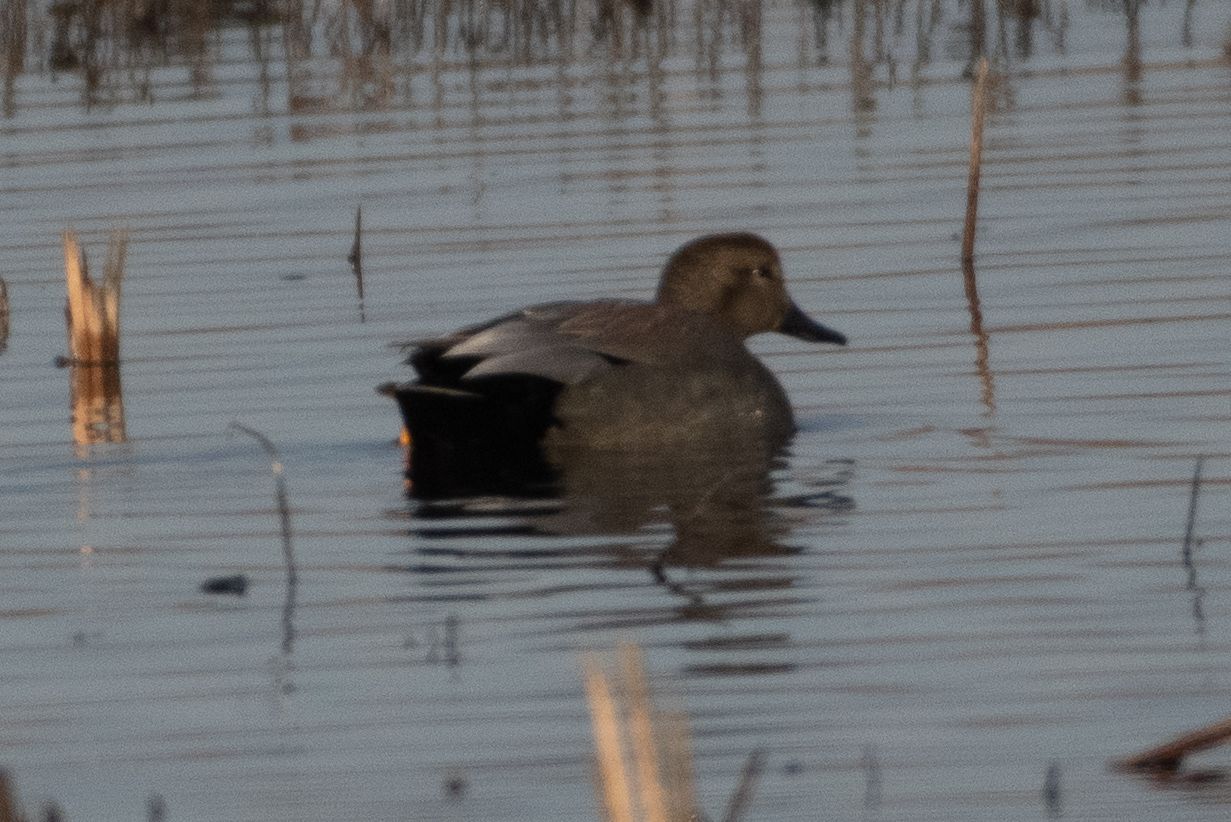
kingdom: Animalia
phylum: Chordata
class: Aves
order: Anseriformes
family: Anatidae
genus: Mareca
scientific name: Mareca strepera
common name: Gadwall
